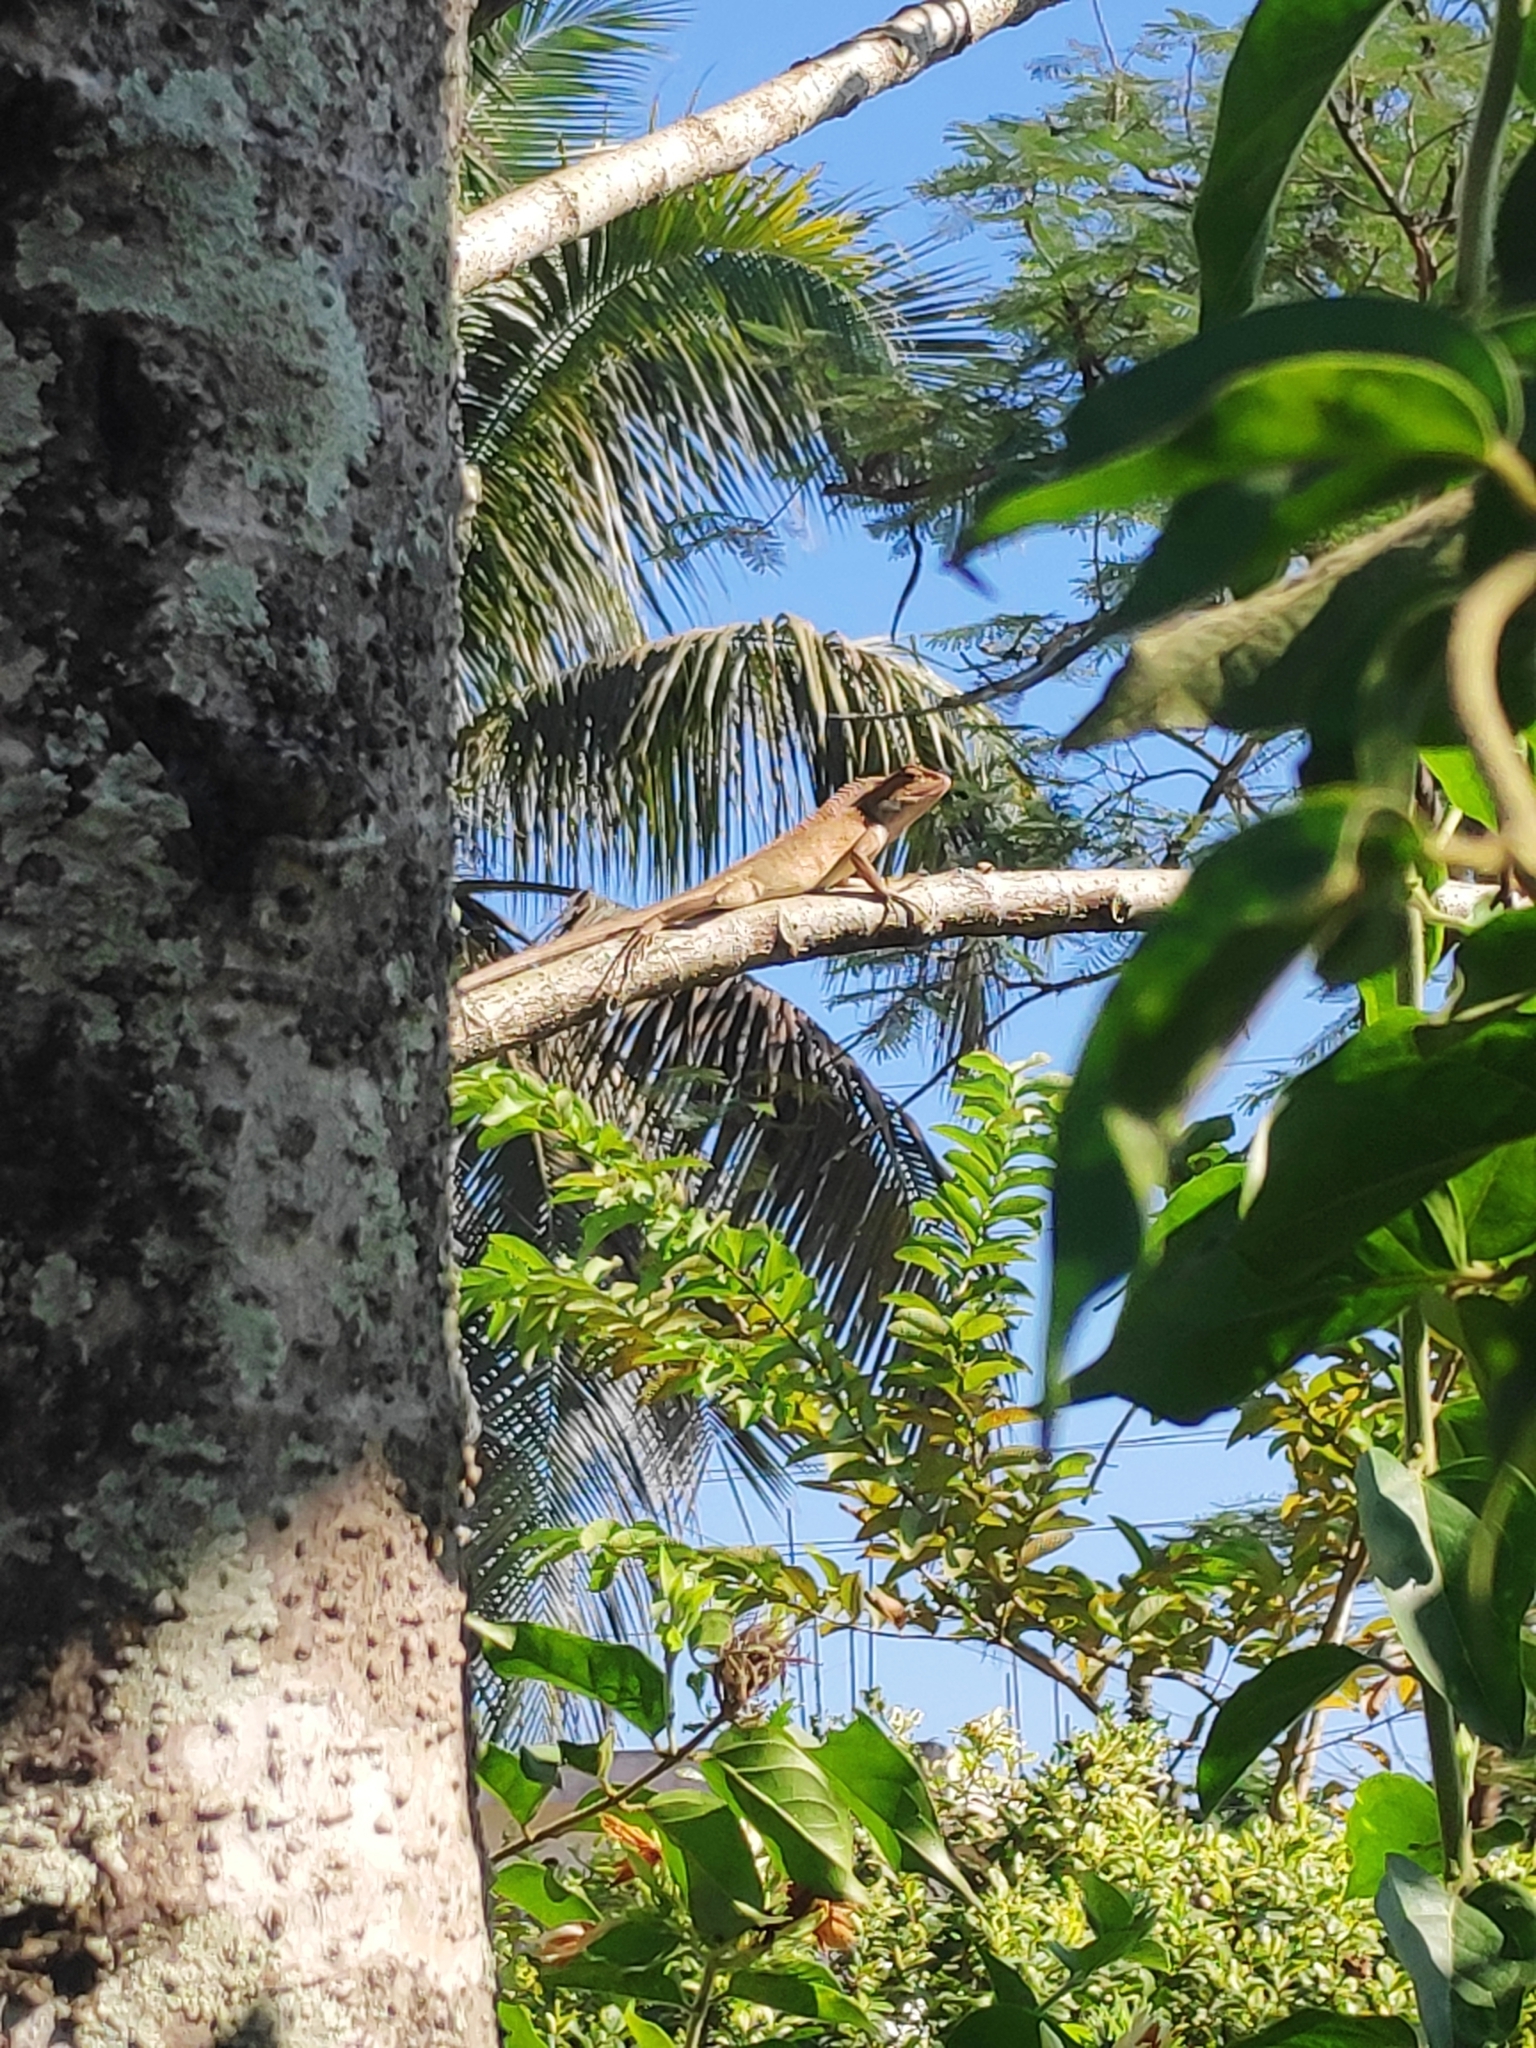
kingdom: Animalia
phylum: Chordata
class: Squamata
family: Agamidae
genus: Calotes
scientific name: Calotes versicolor
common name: Oriental garden lizard
